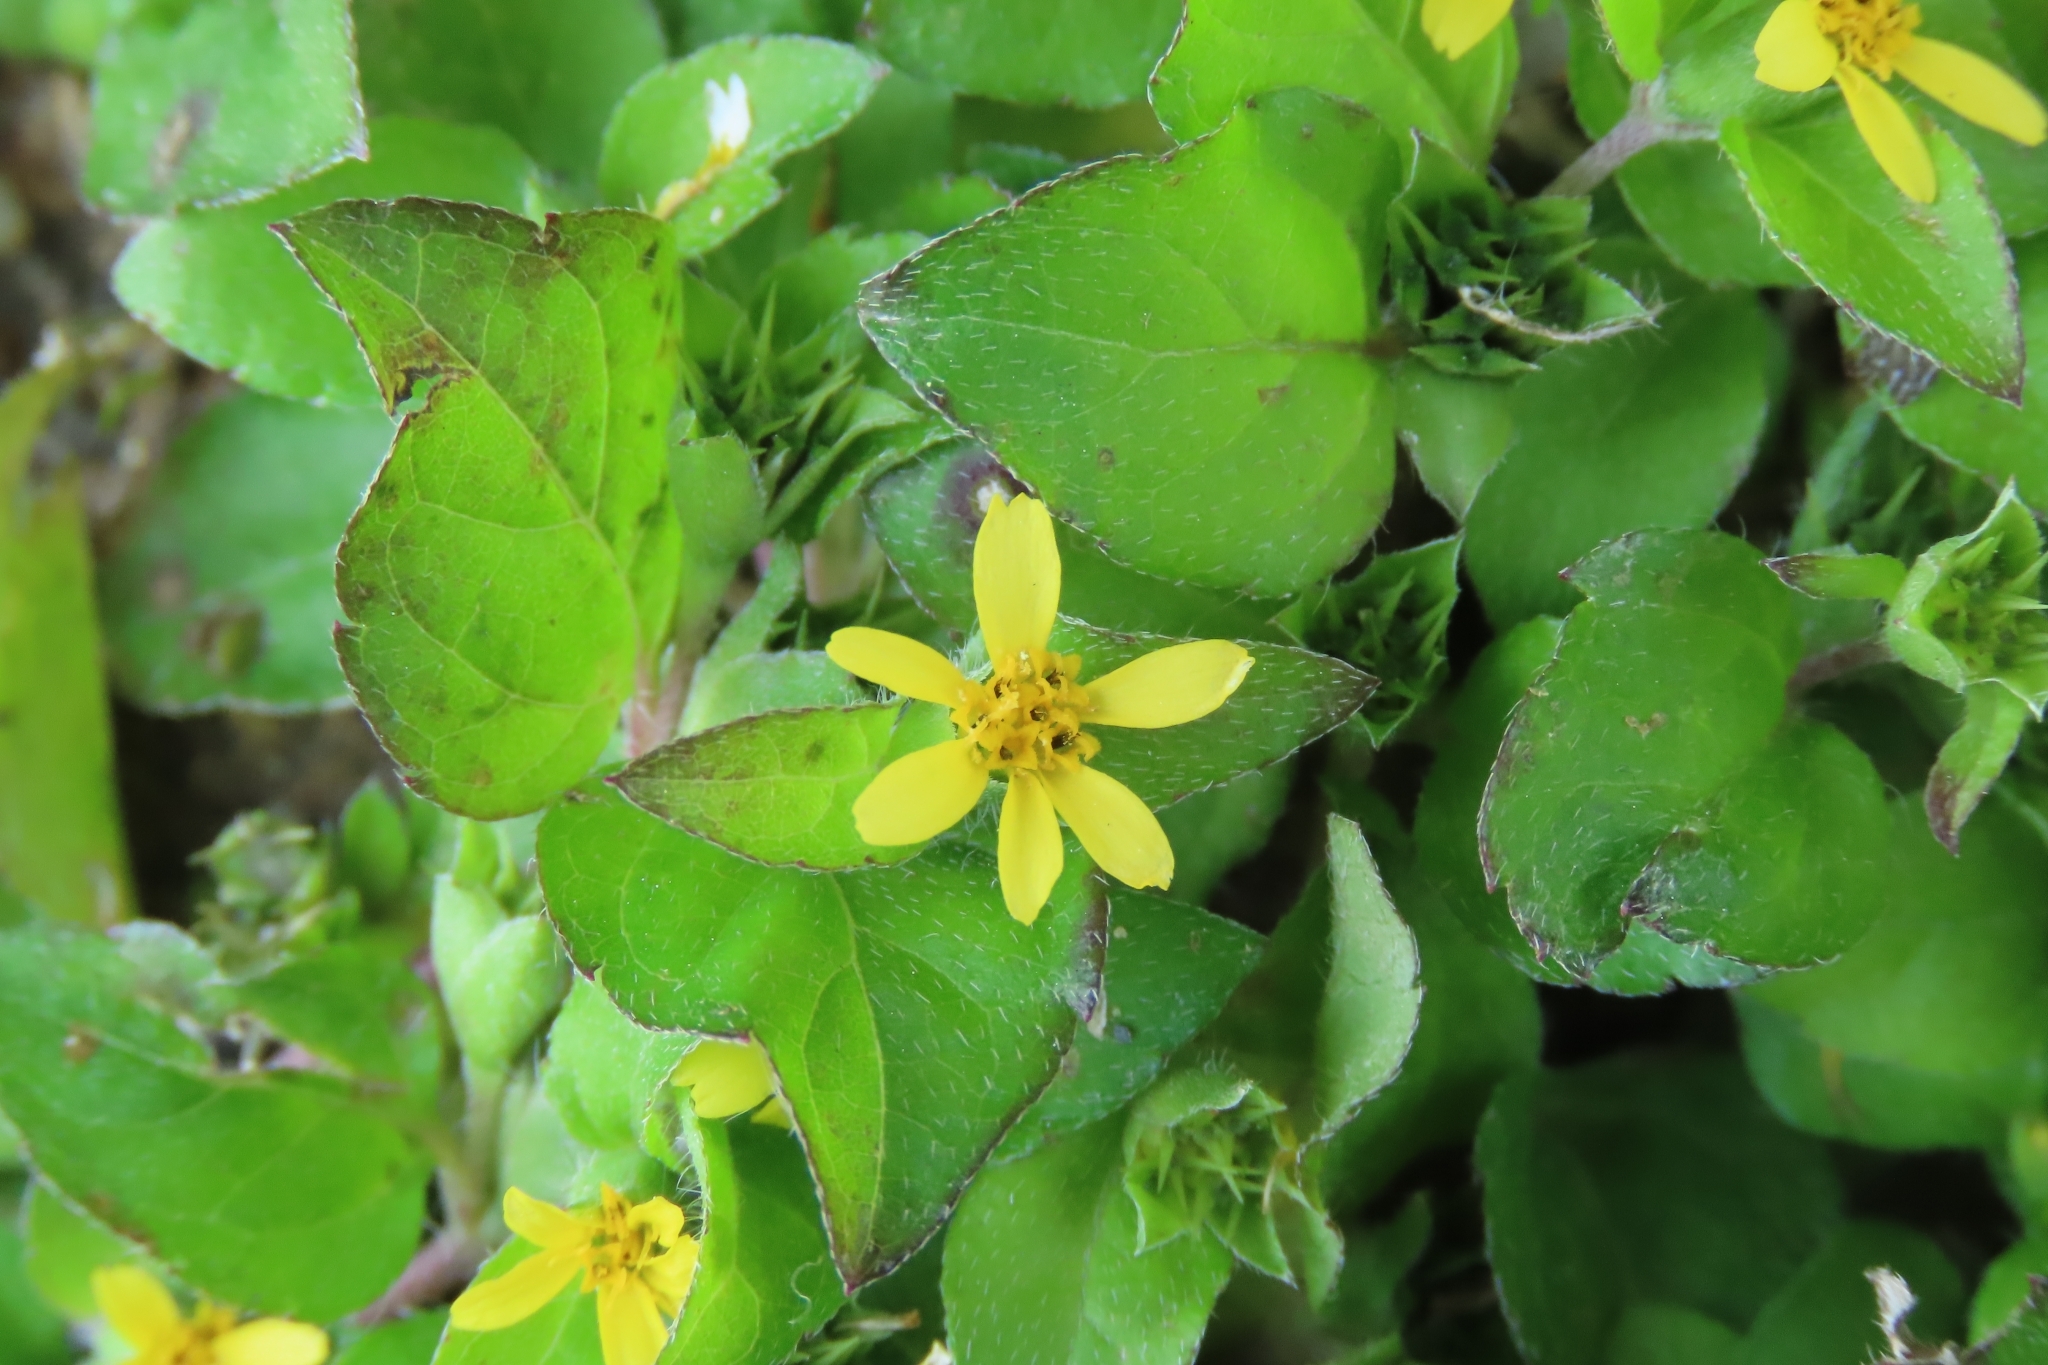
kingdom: Plantae
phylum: Tracheophyta
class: Magnoliopsida
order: Asterales
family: Asteraceae
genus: Calyptocarpus
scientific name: Calyptocarpus vialis
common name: Straggler daisy
